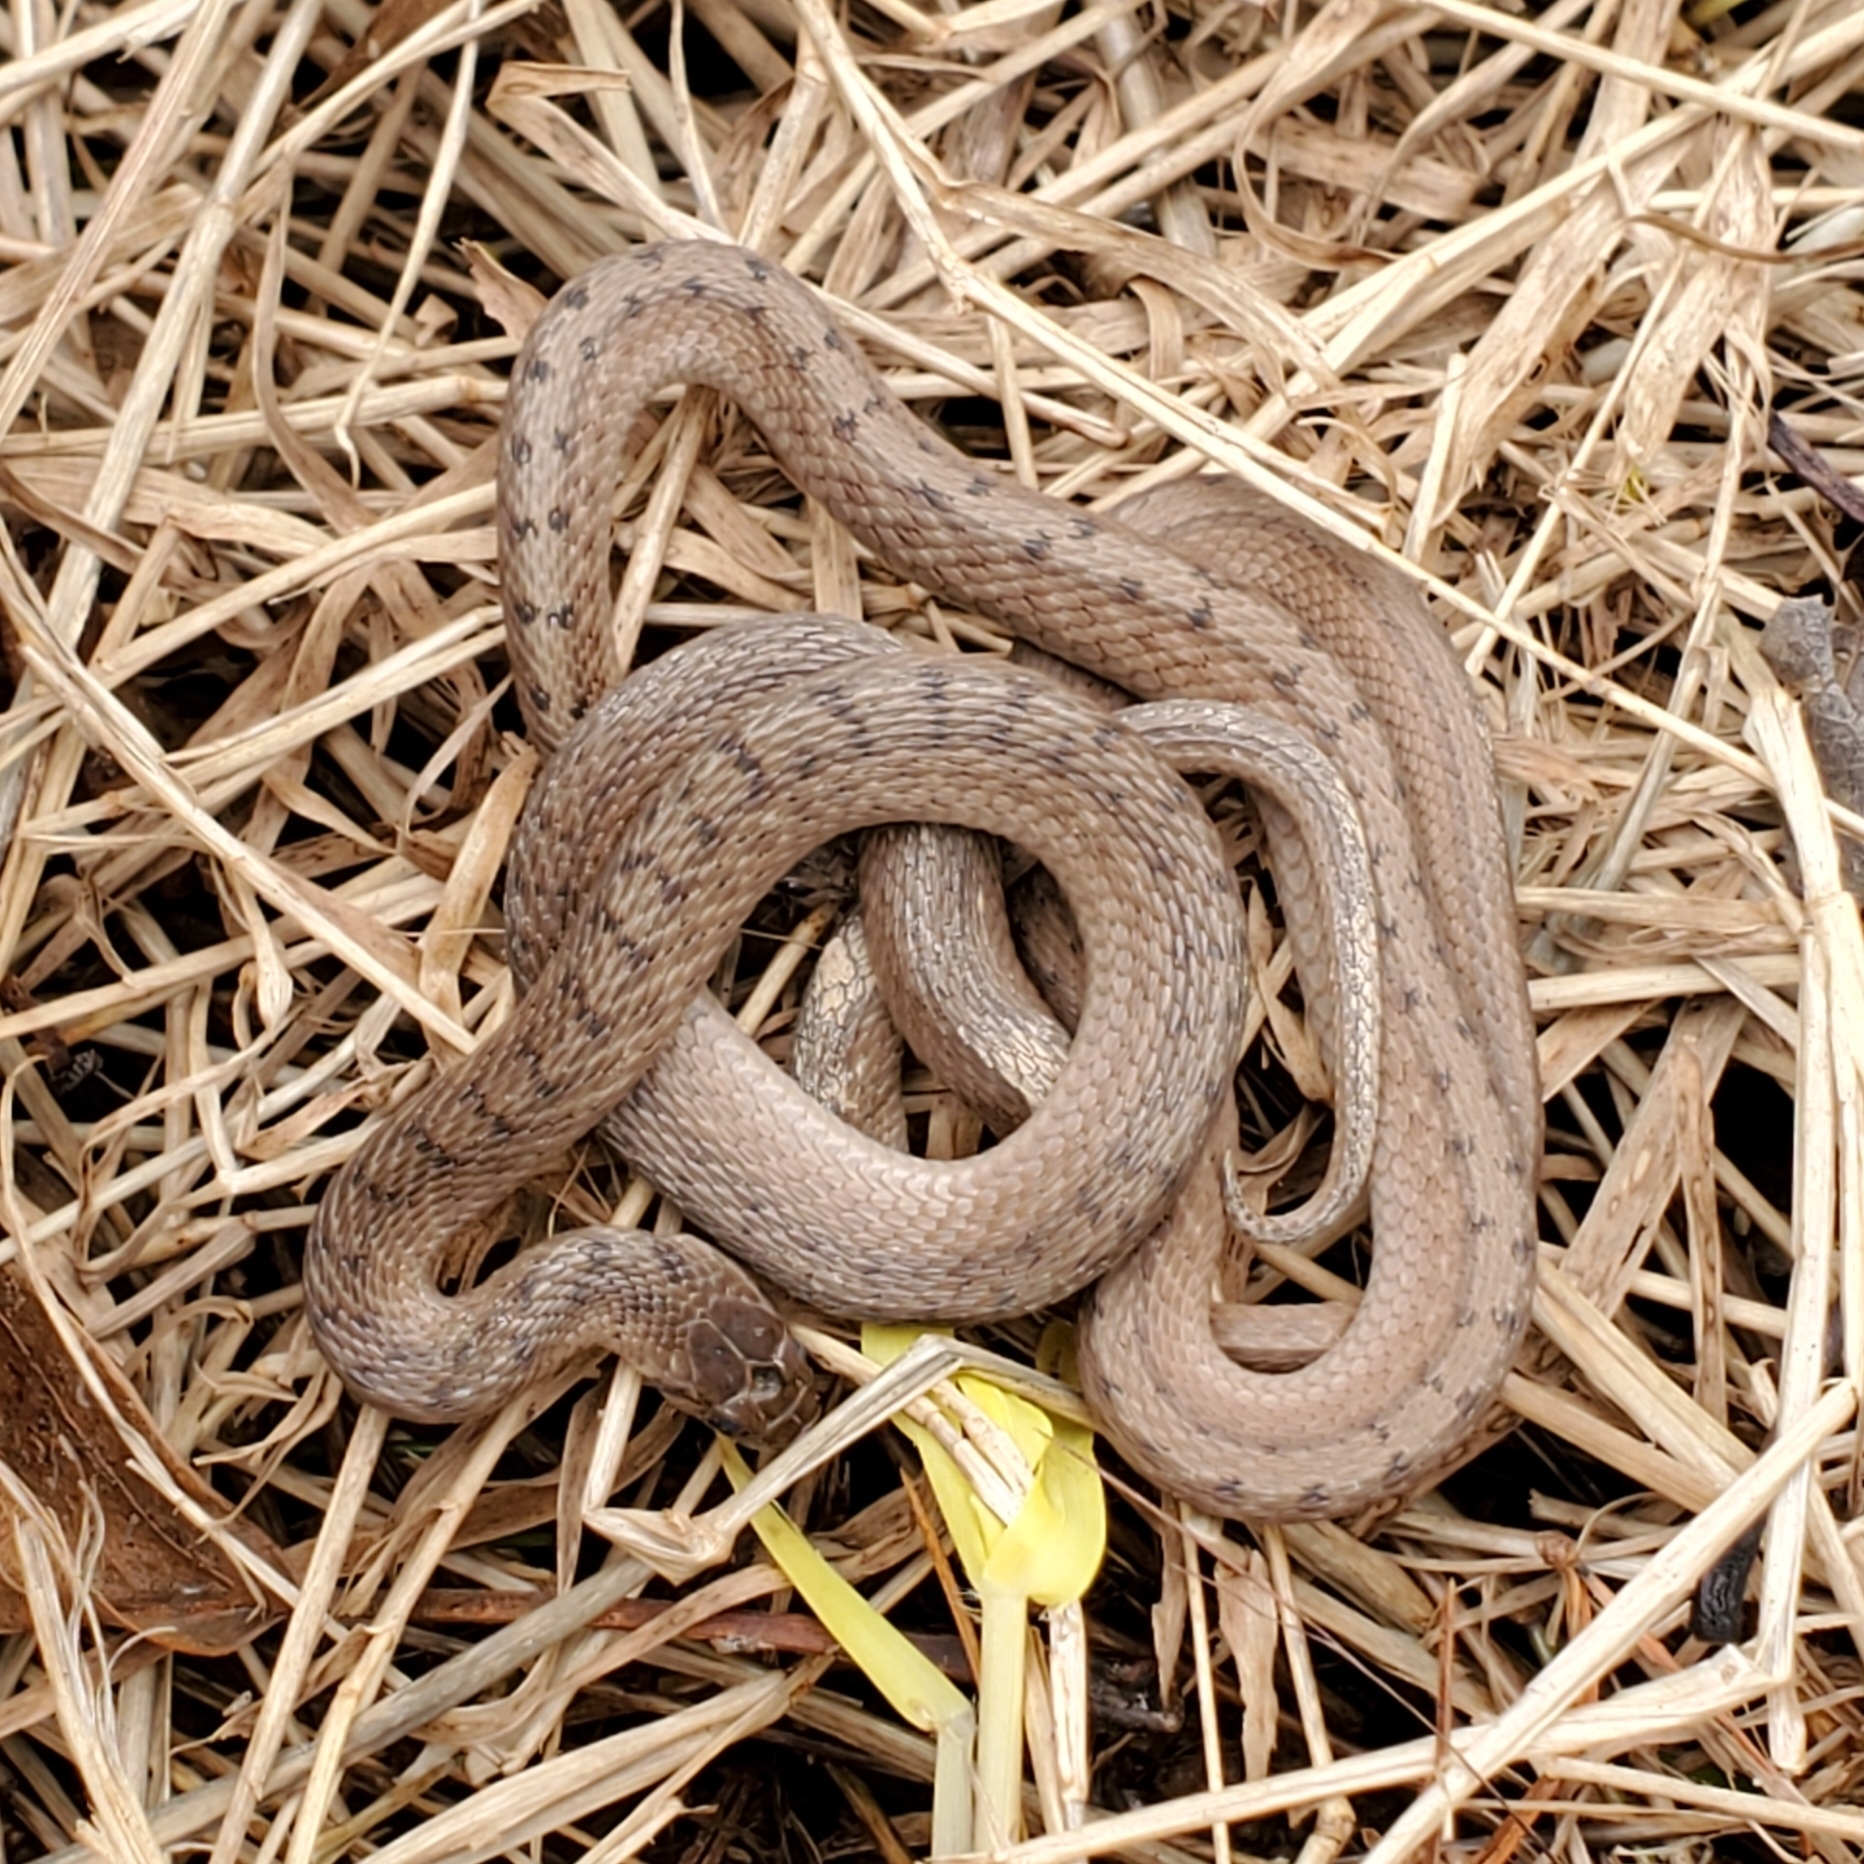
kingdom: Animalia
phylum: Chordata
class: Squamata
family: Colubridae
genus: Storeria
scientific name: Storeria dekayi
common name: (dekay’s) brown snake
